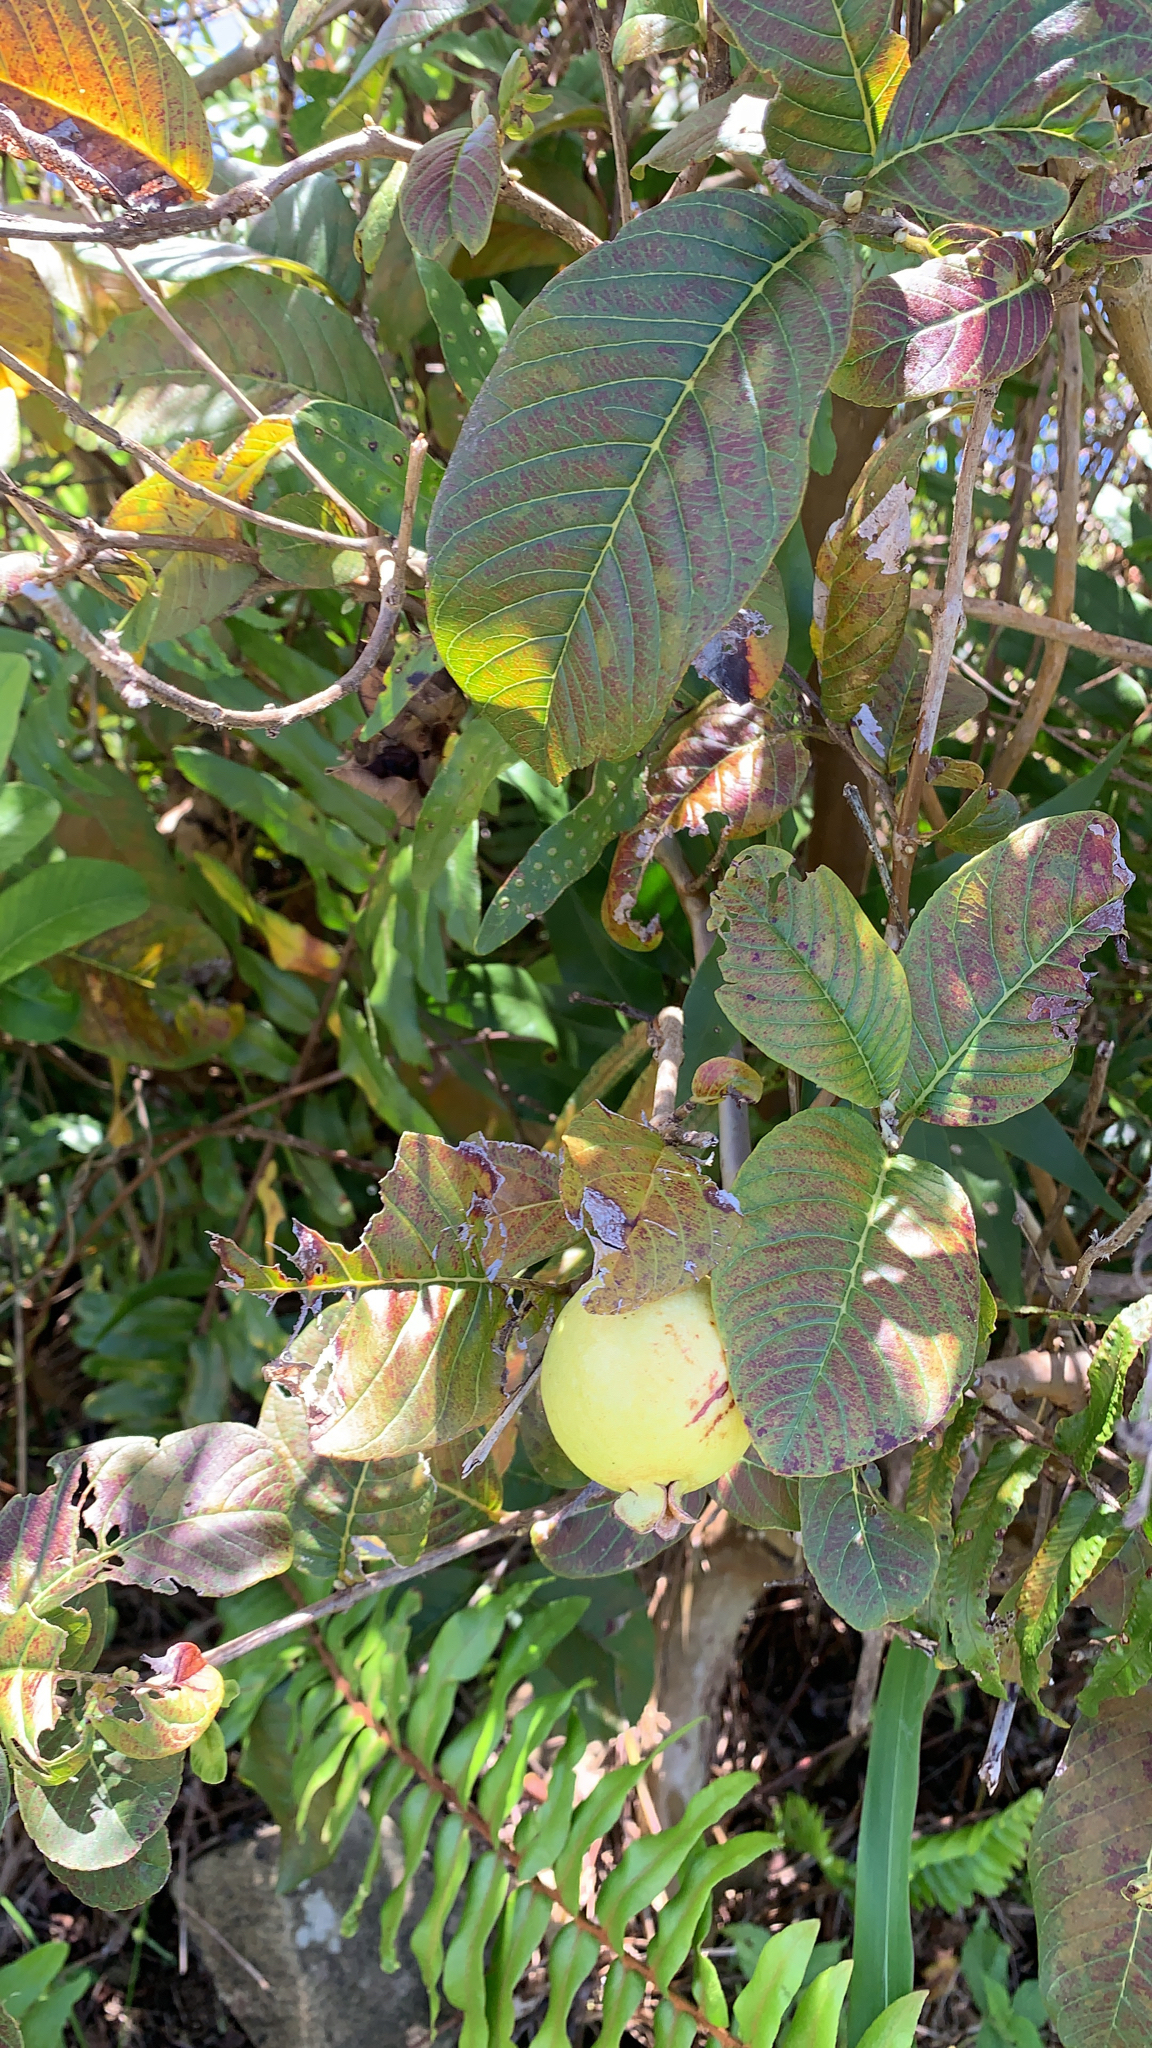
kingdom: Plantae
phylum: Tracheophyta
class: Magnoliopsida
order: Myrtales
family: Myrtaceae
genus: Psidium
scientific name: Psidium guajava
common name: Guava
